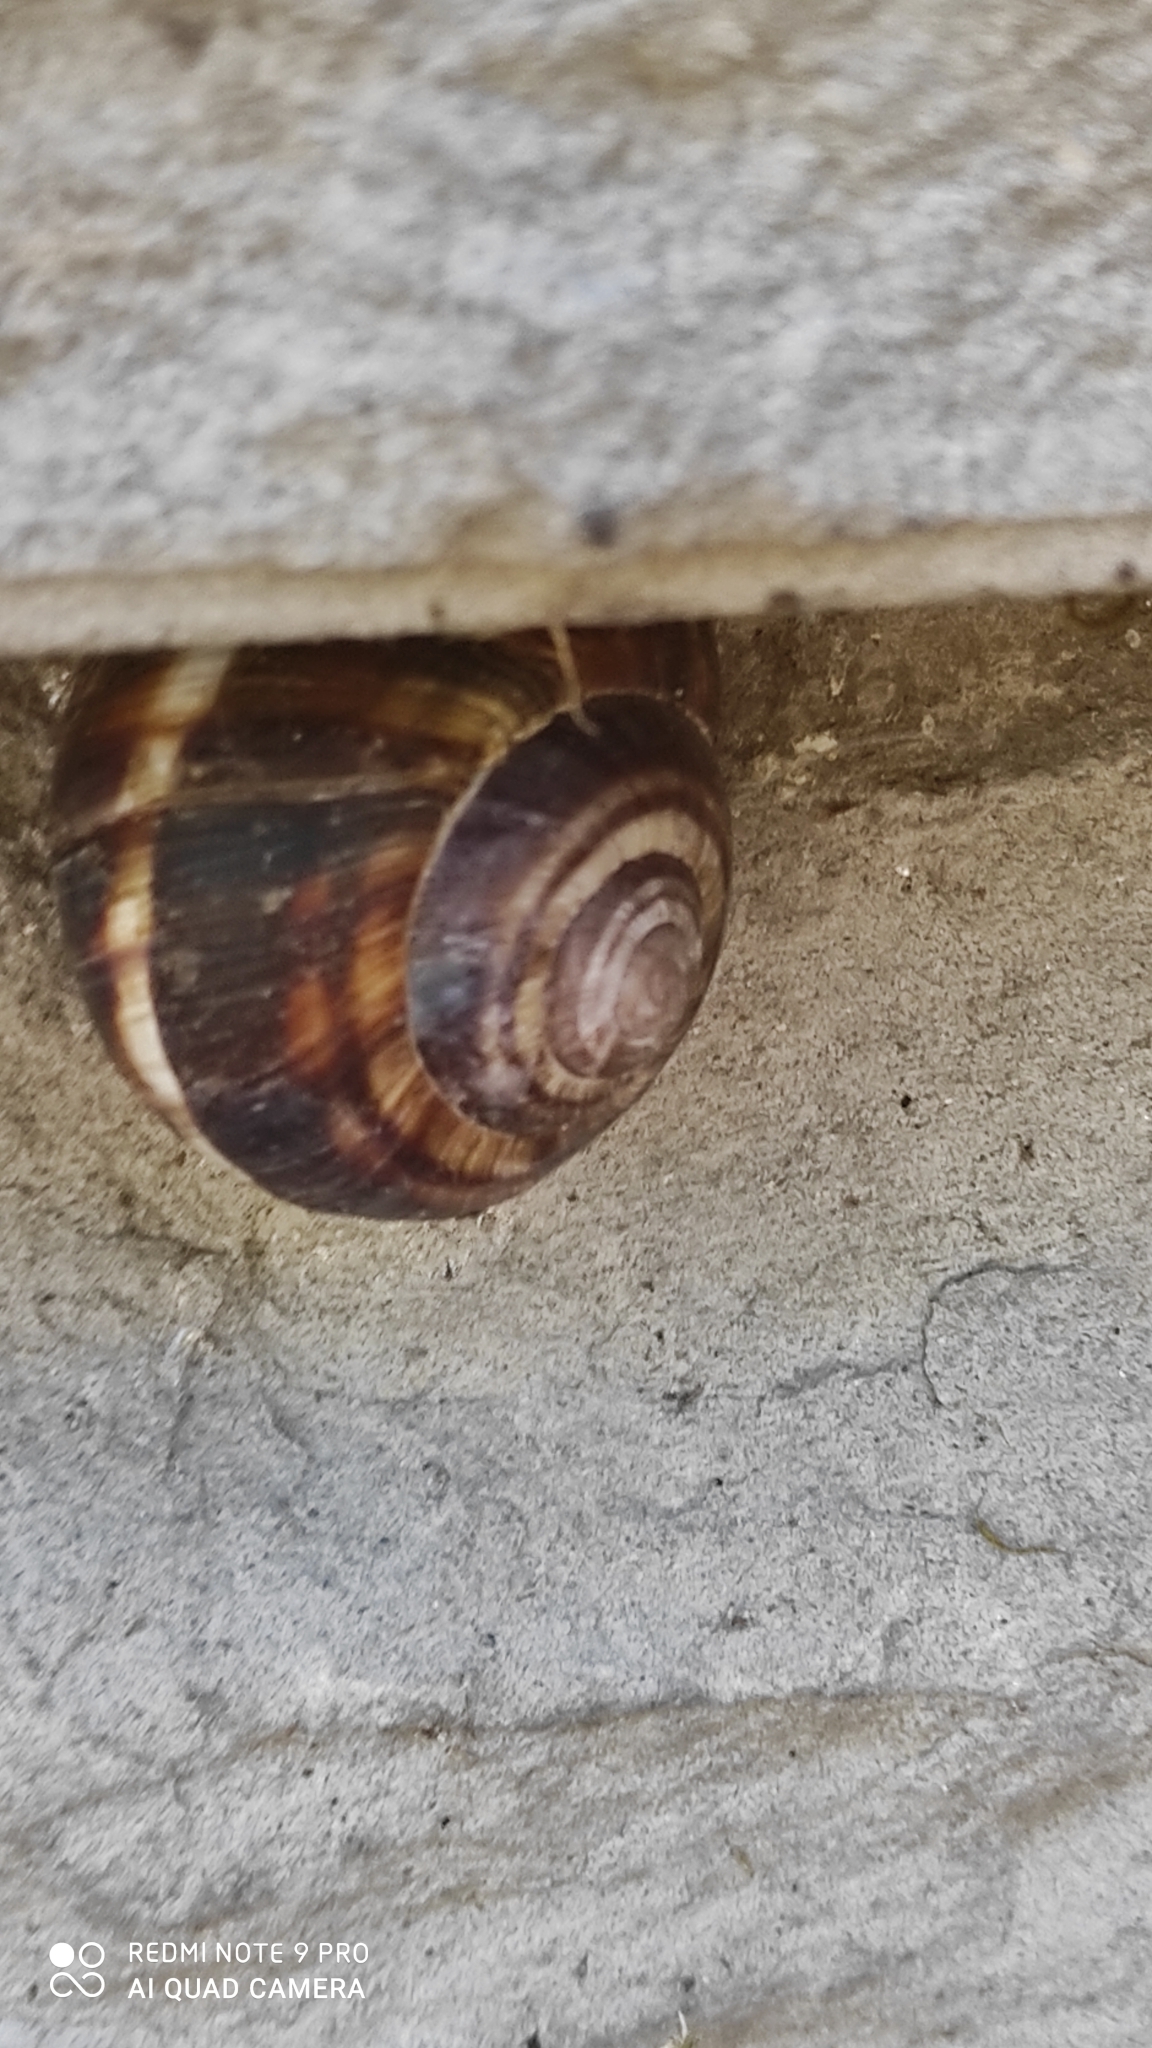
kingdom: Animalia
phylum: Mollusca
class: Gastropoda
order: Stylommatophora
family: Helicidae
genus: Helix
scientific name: Helix lucorum
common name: Turkish snail
